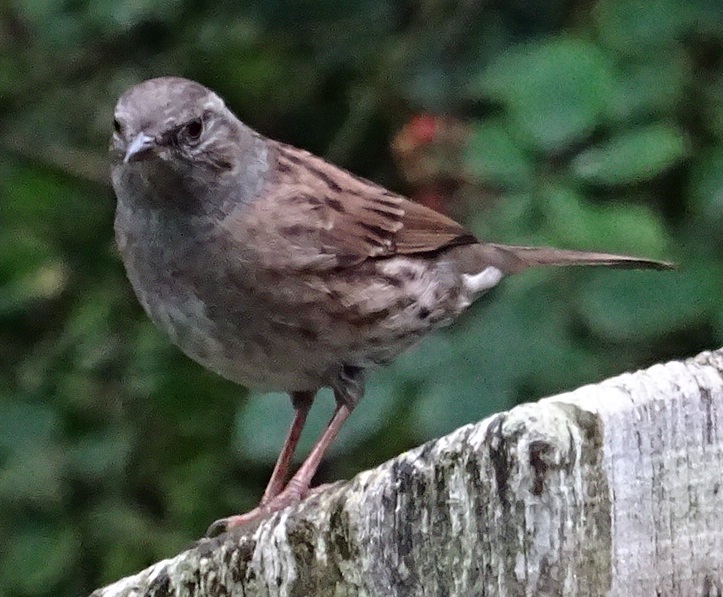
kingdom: Animalia
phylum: Chordata
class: Aves
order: Passeriformes
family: Prunellidae
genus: Prunella
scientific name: Prunella modularis
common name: Dunnock
